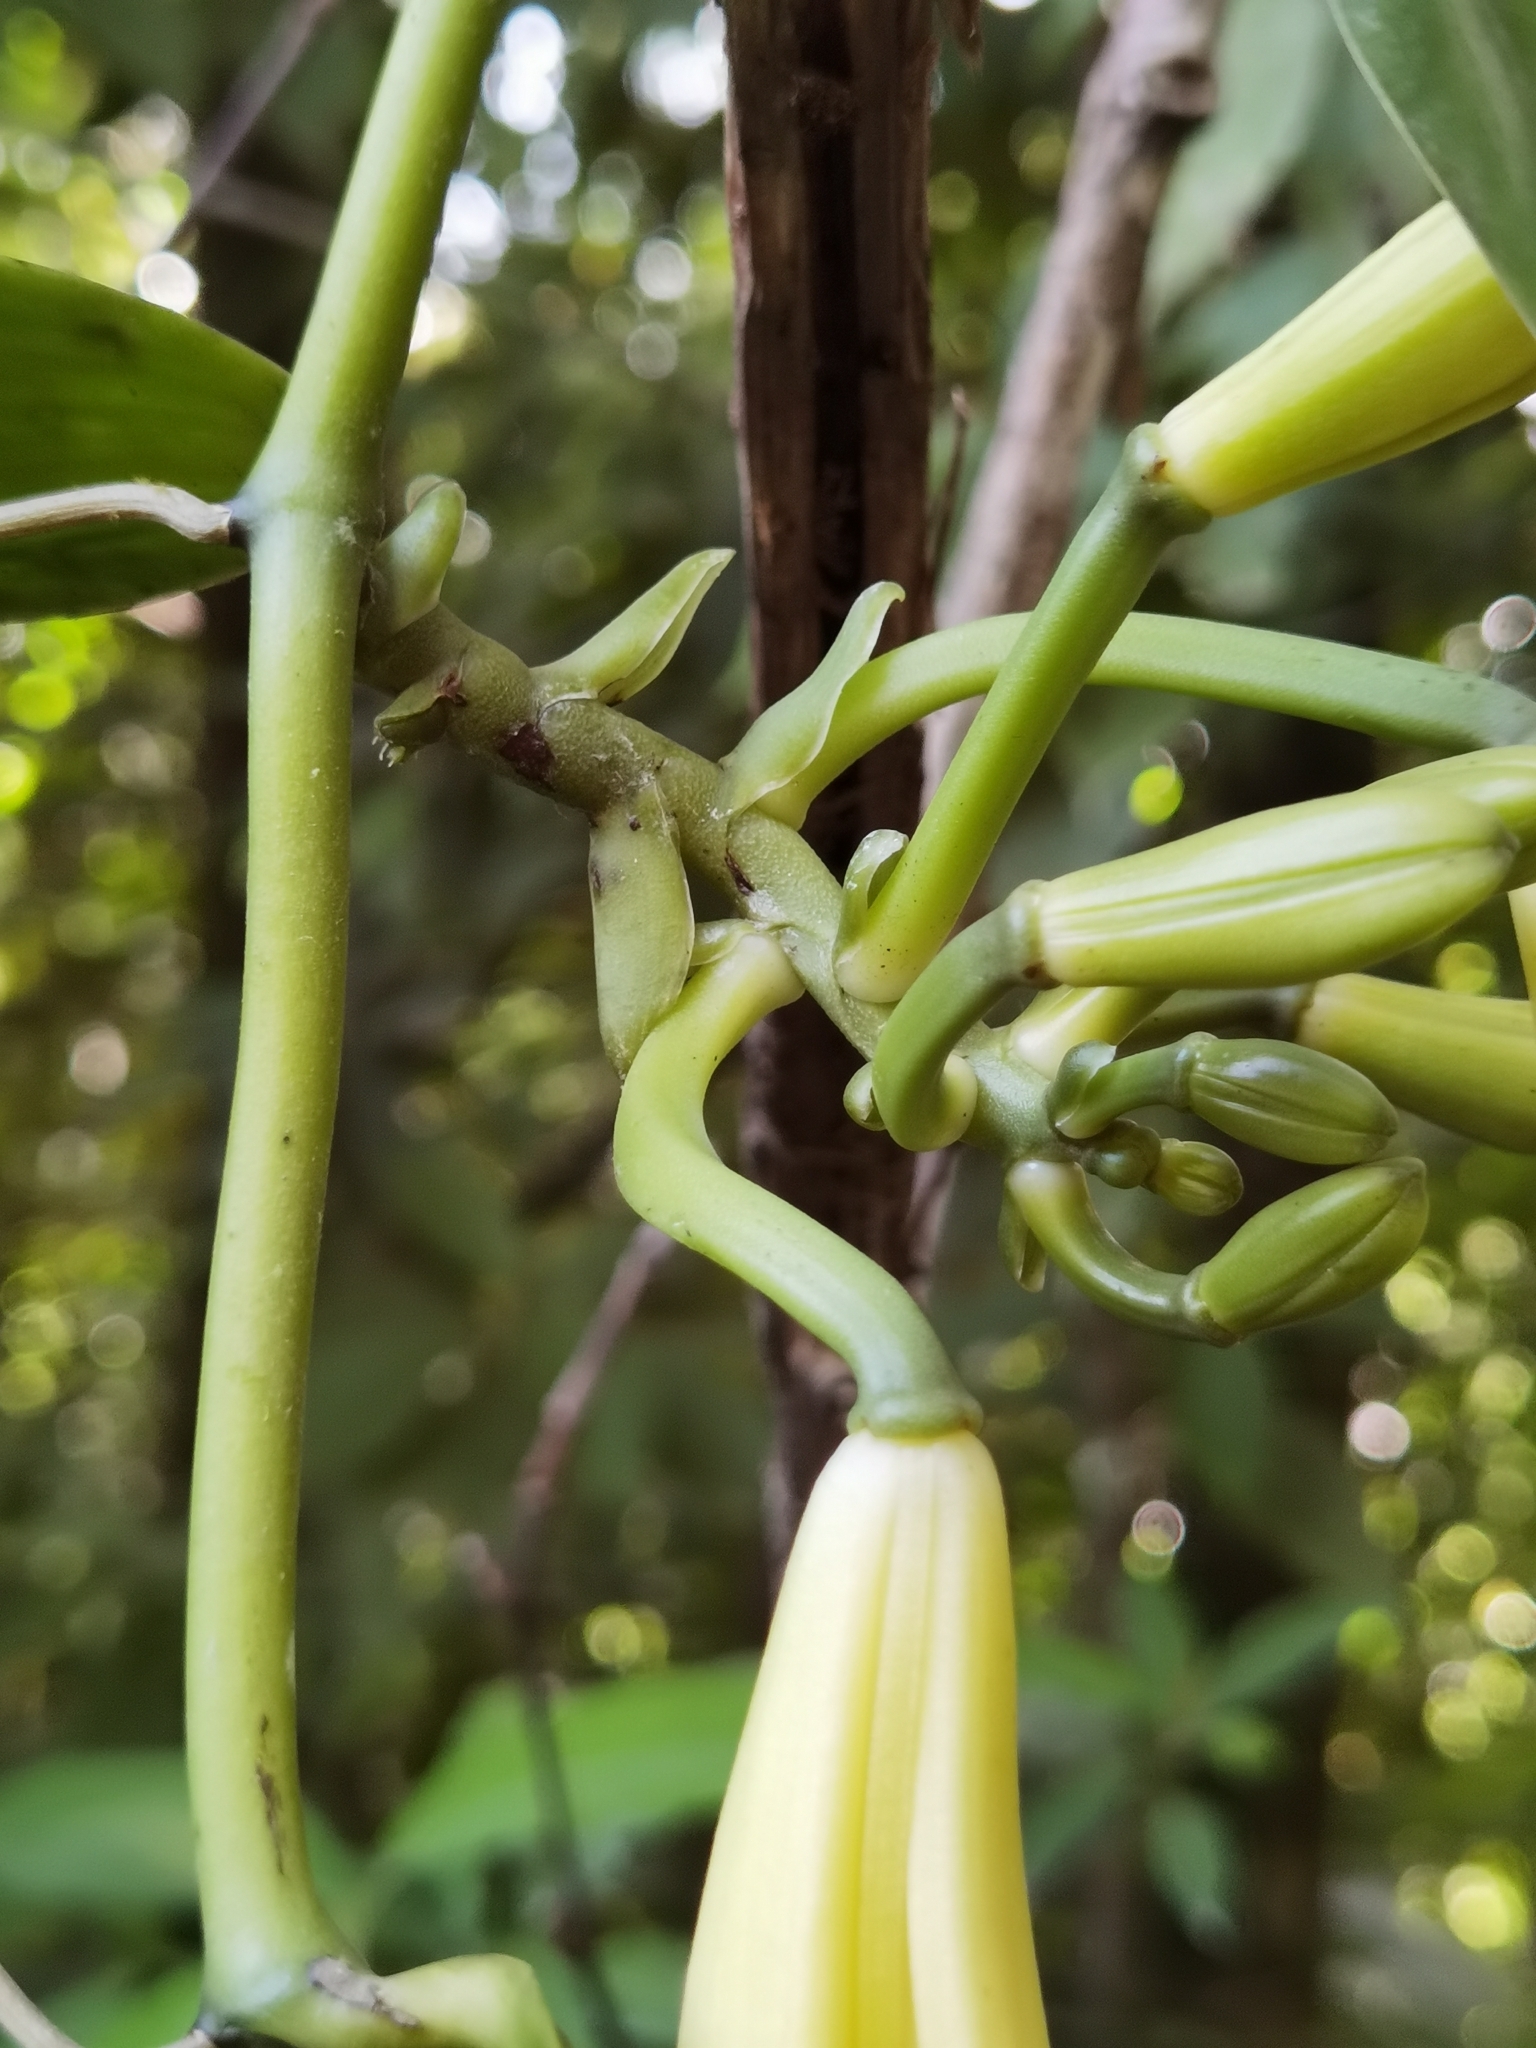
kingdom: Plantae
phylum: Tracheophyta
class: Liliopsida
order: Asparagales
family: Orchidaceae
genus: Vanilla
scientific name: Vanilla dressleri
